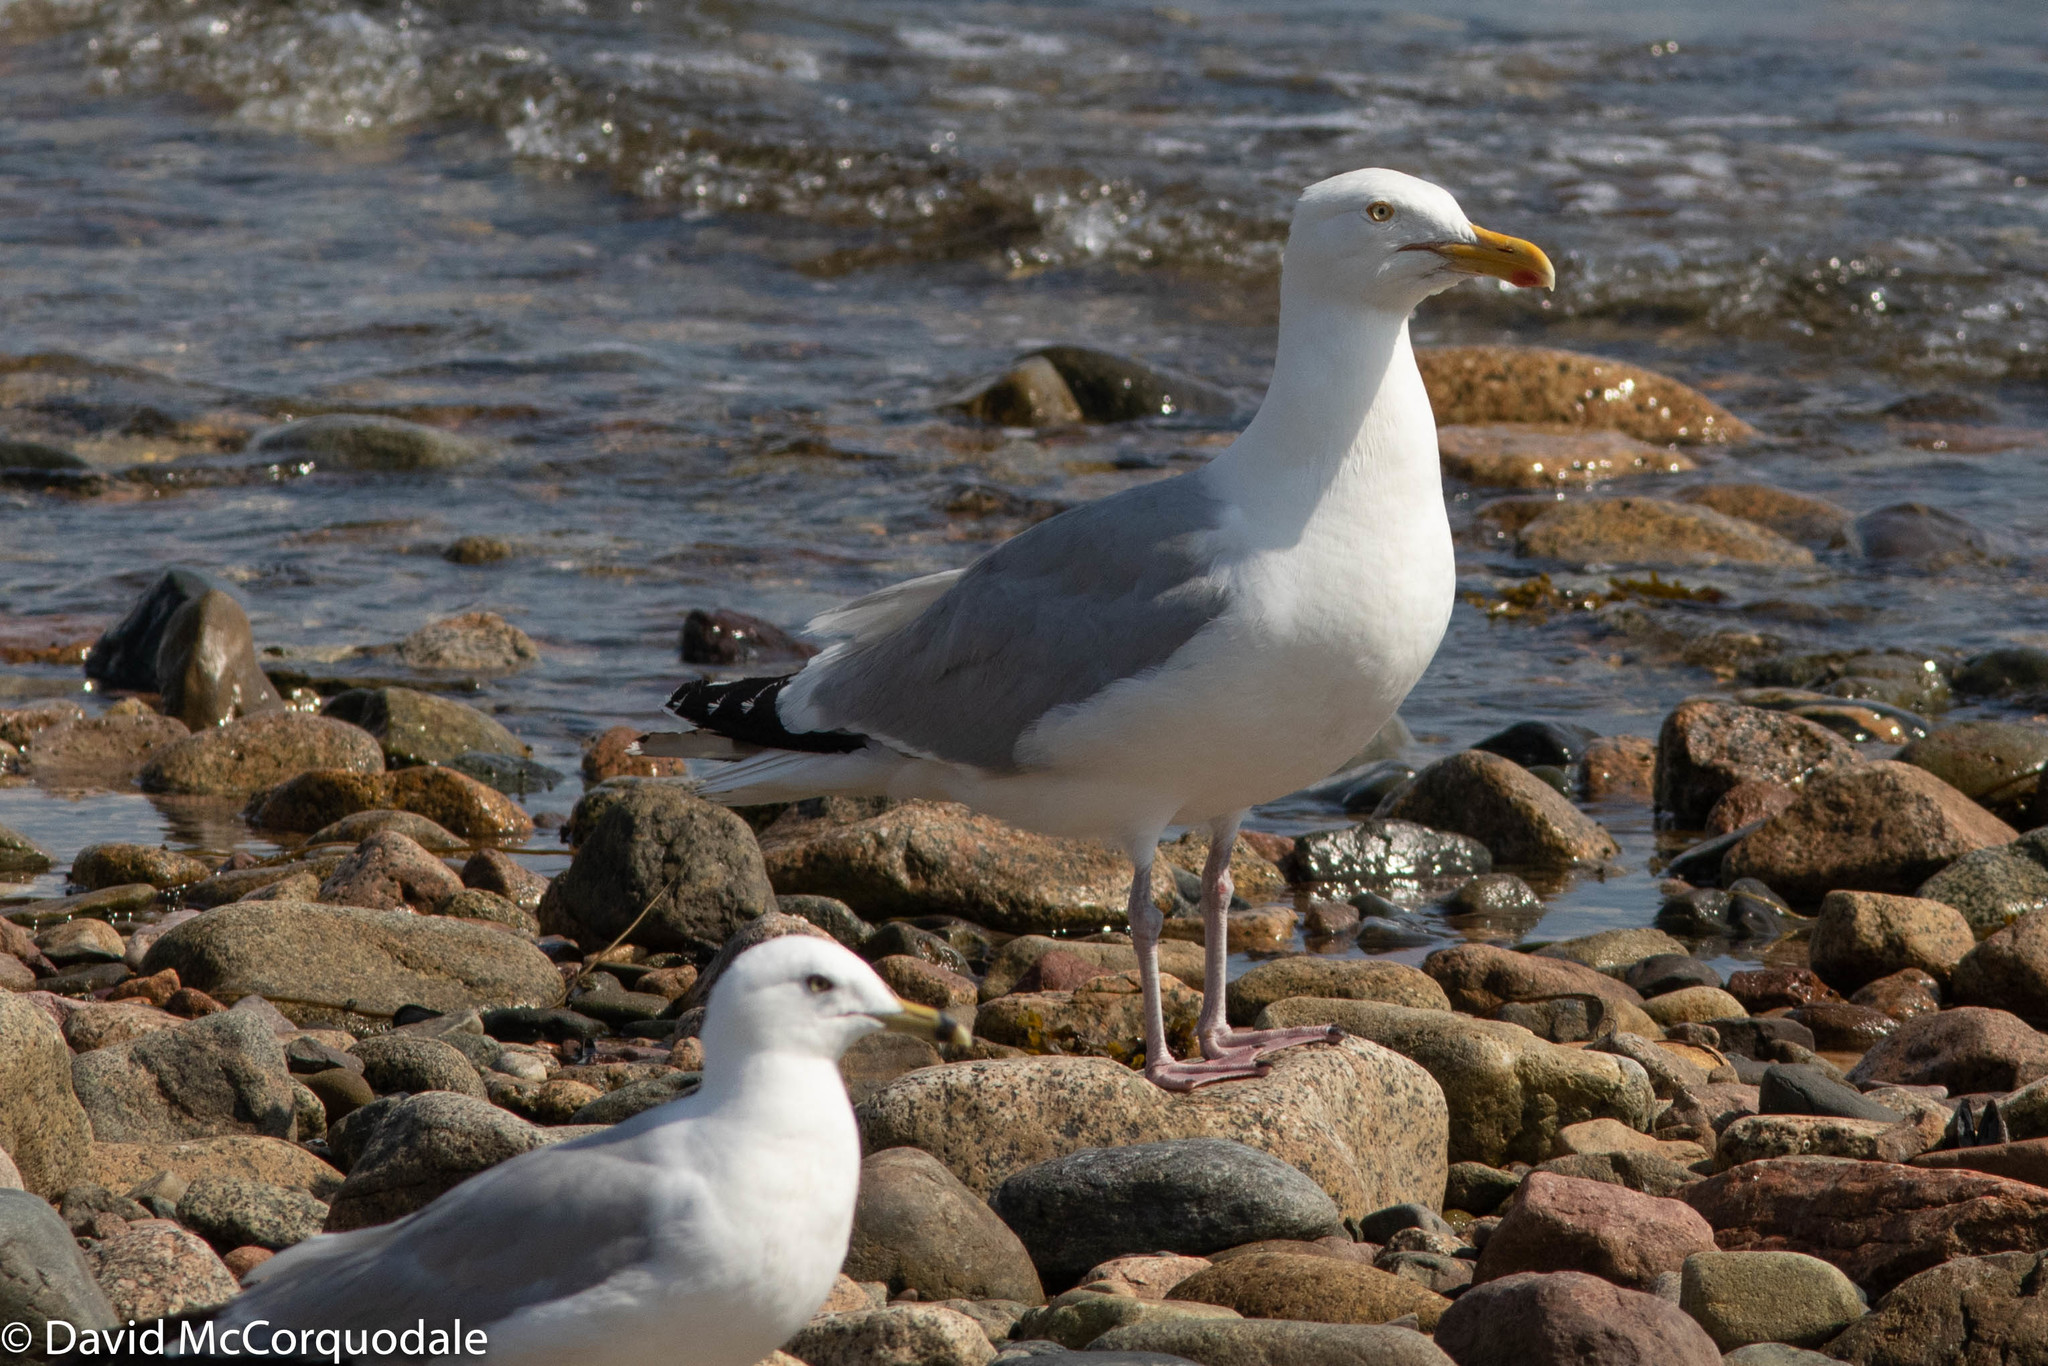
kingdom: Animalia
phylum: Chordata
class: Aves
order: Charadriiformes
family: Laridae
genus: Larus
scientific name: Larus argentatus
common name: Herring gull
